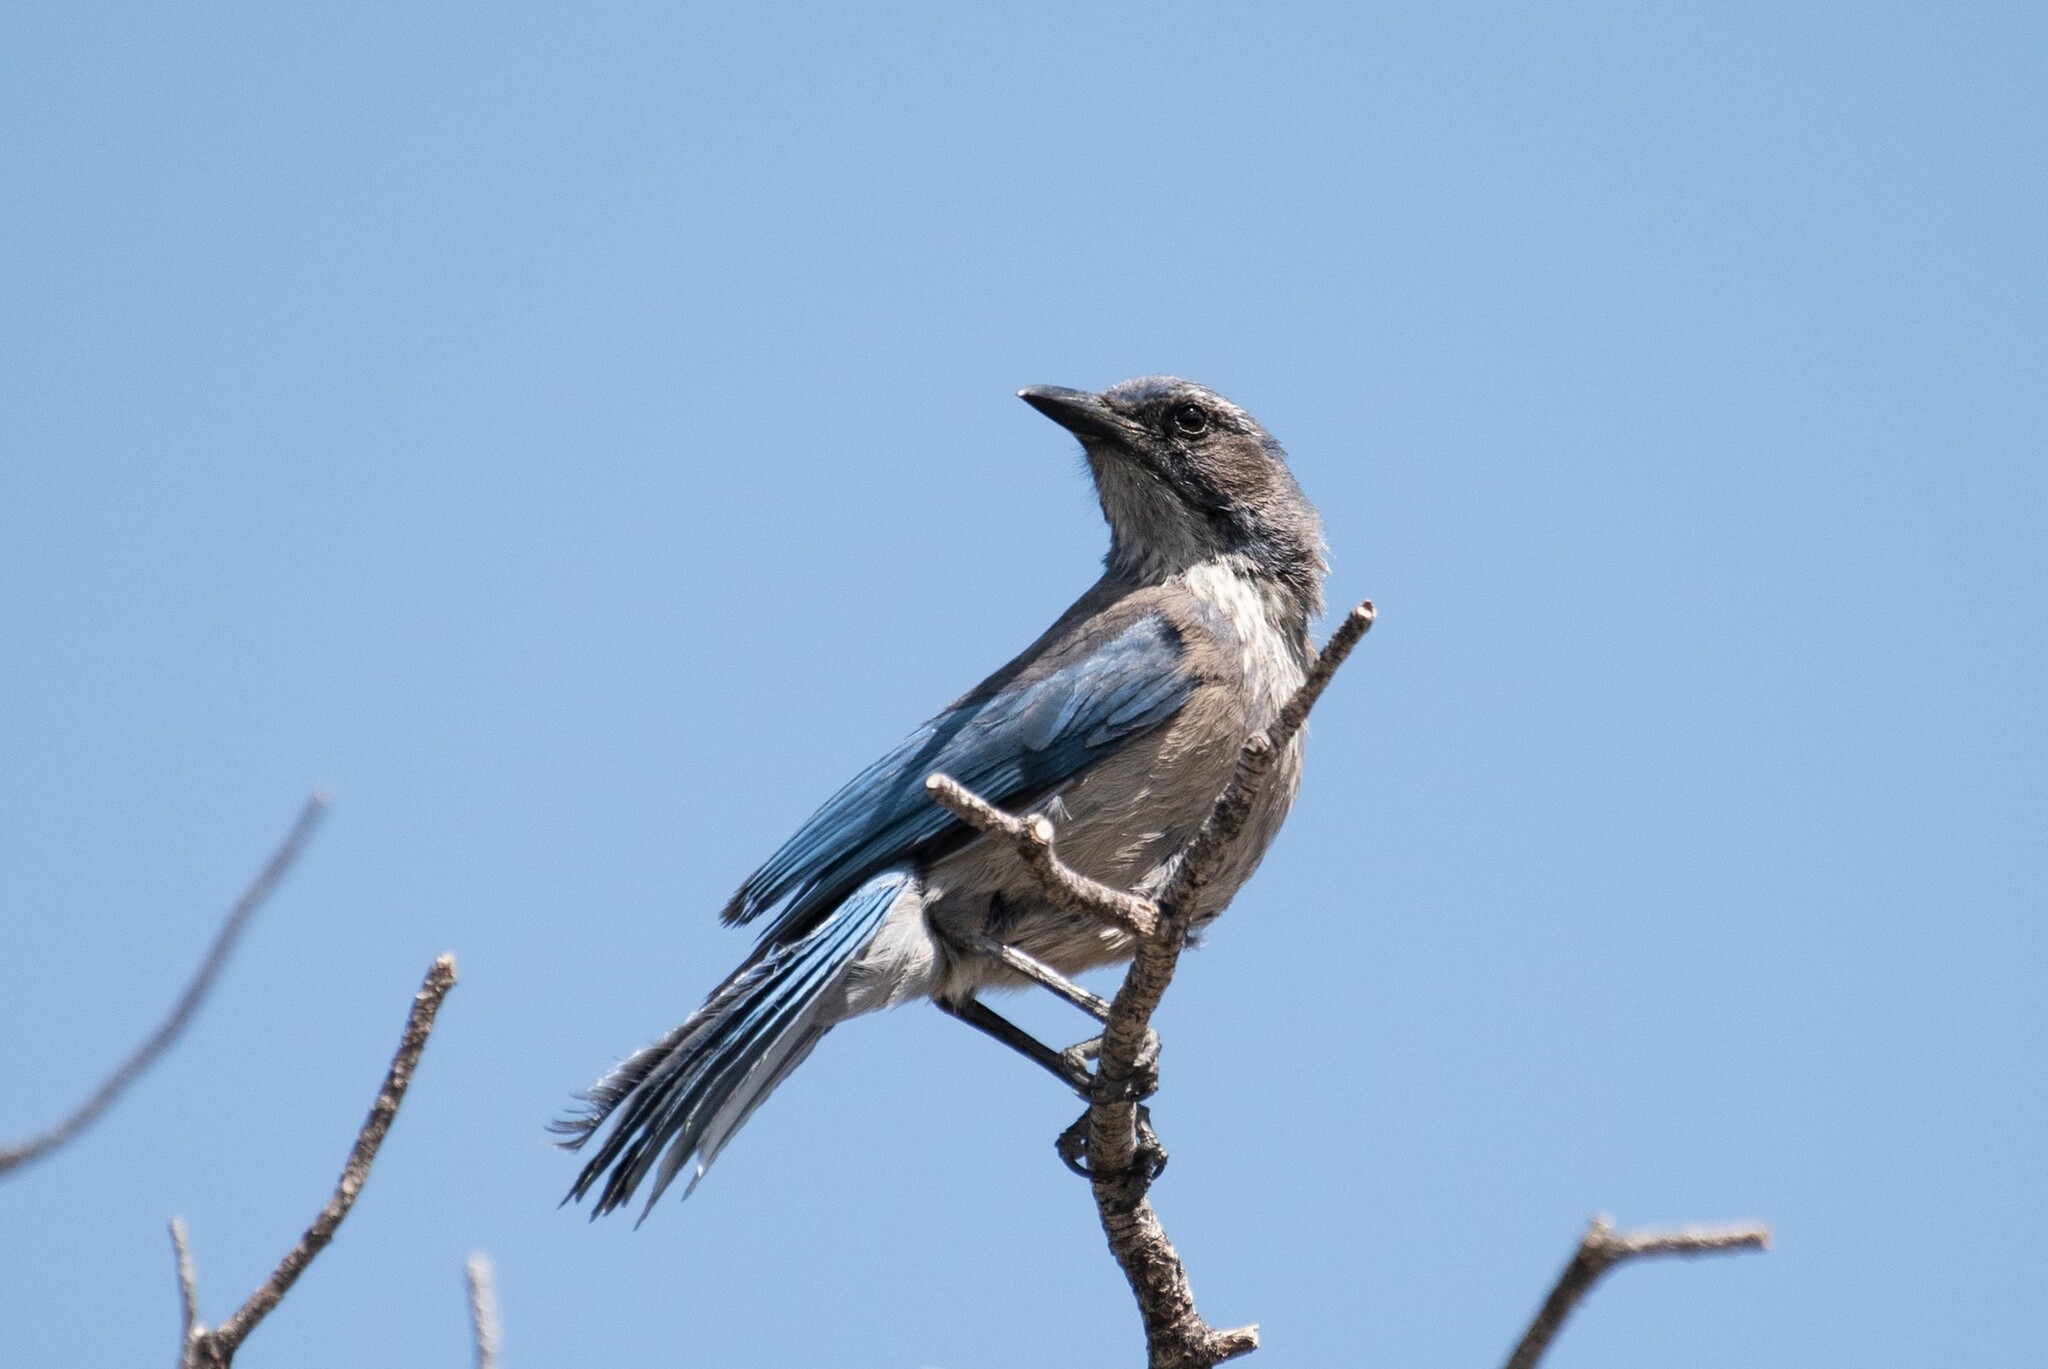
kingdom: Animalia
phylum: Chordata
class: Aves
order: Passeriformes
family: Corvidae
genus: Aphelocoma
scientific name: Aphelocoma woodhouseii
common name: Woodhouse's scrub-jay
